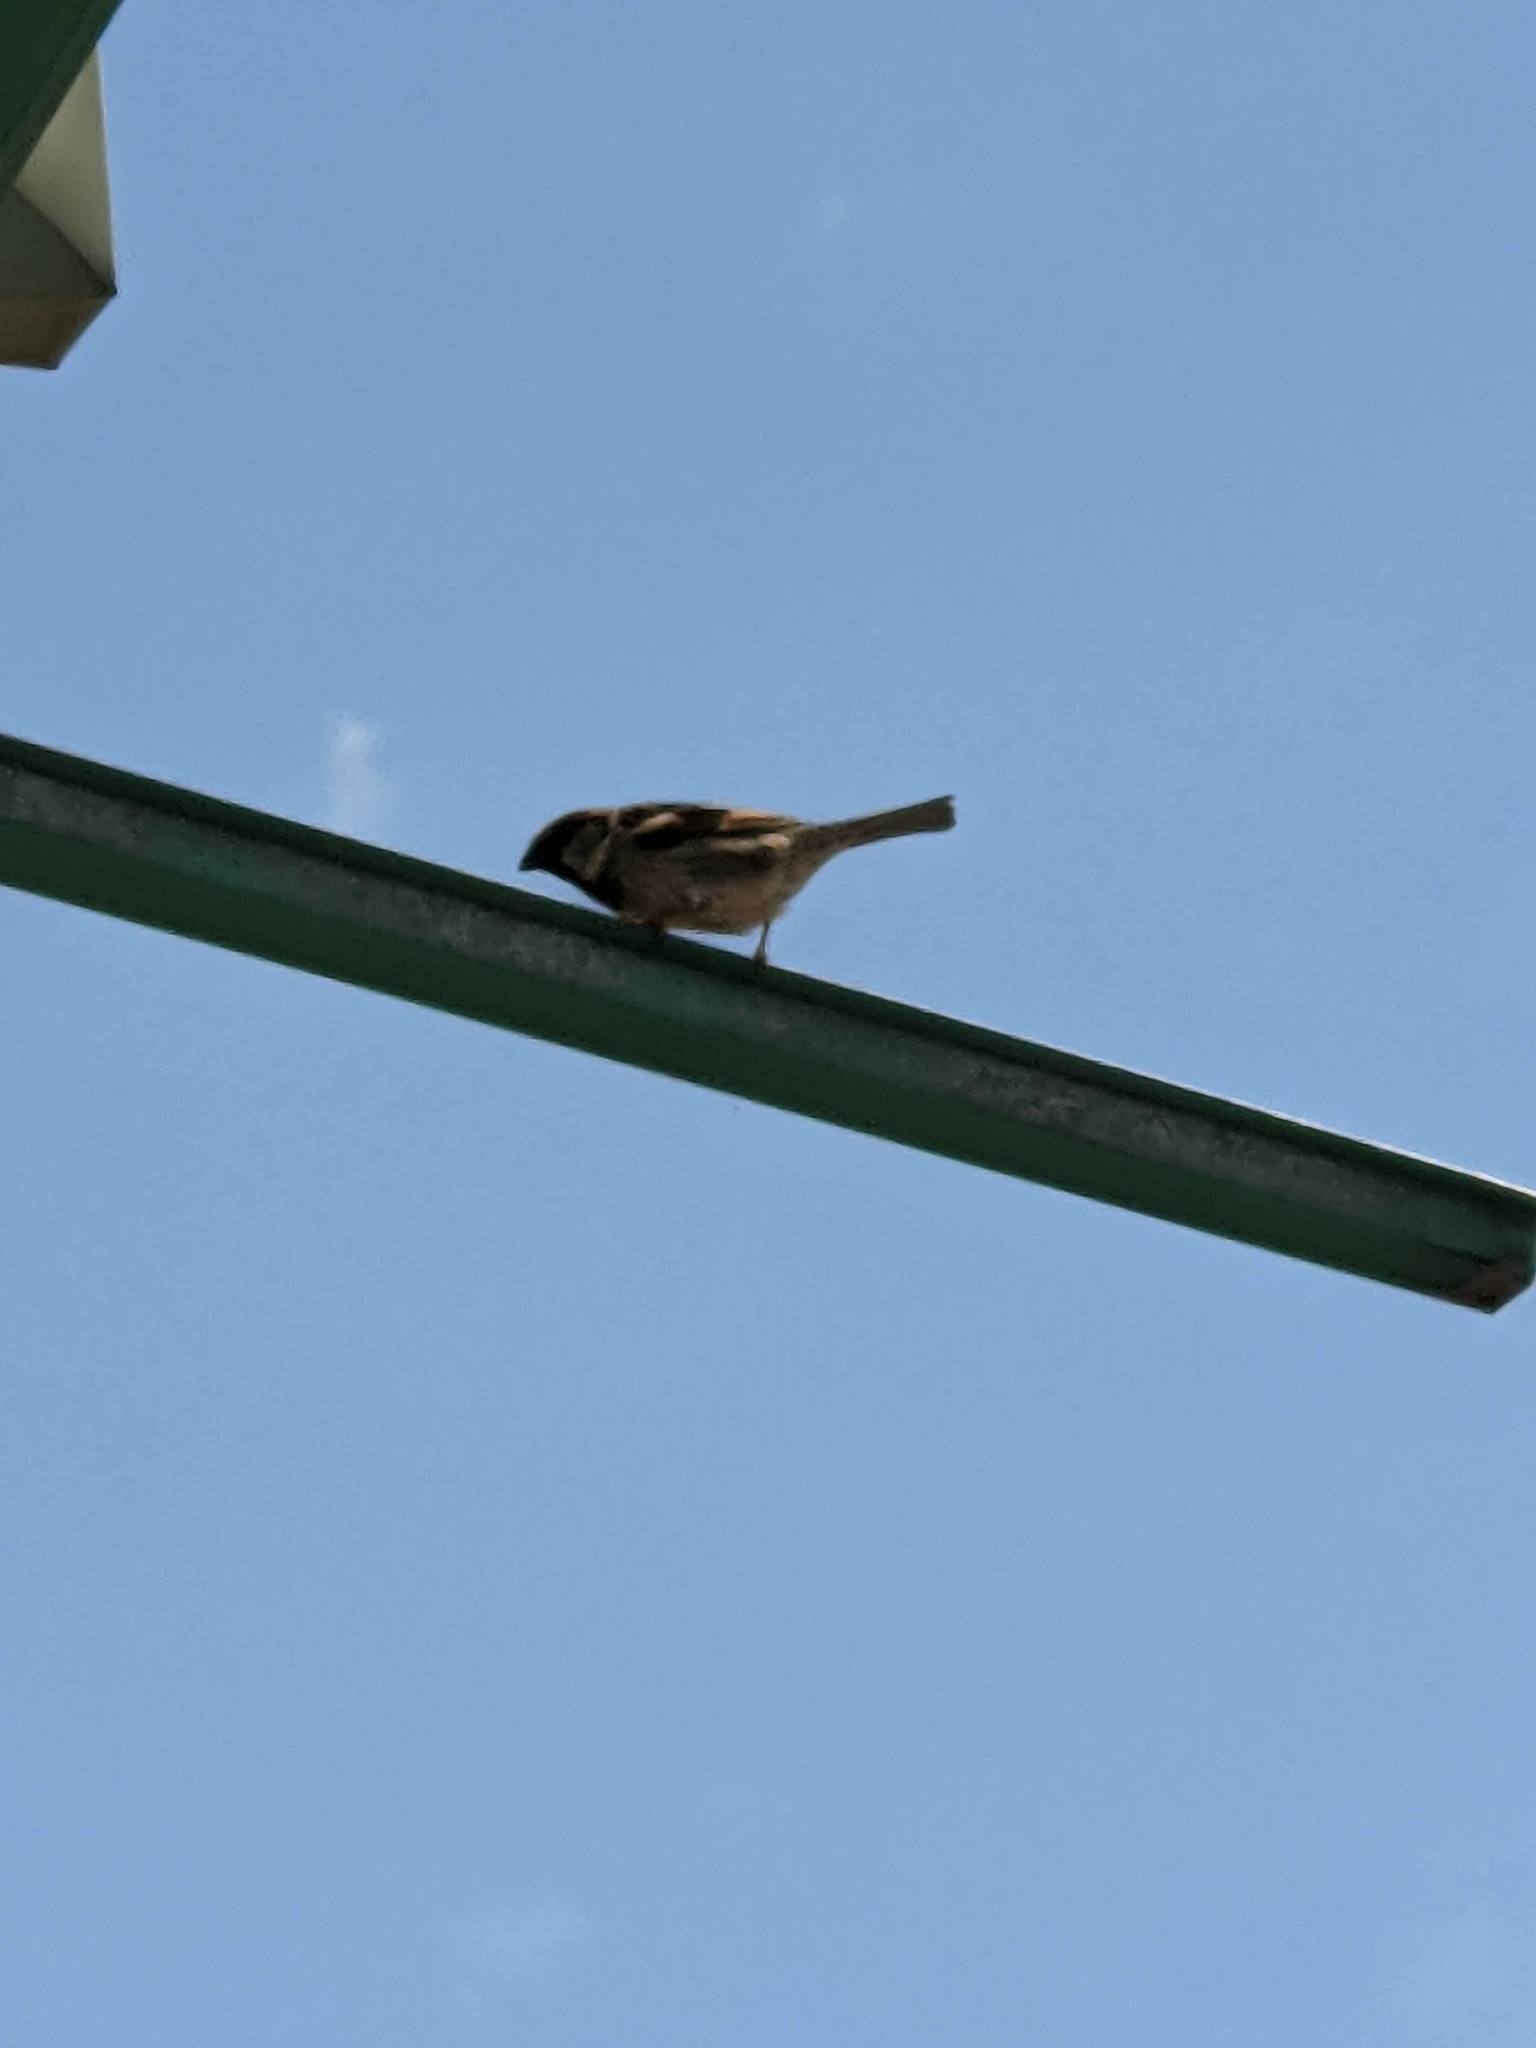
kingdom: Animalia
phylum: Chordata
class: Aves
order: Passeriformes
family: Passeridae
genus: Passer
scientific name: Passer domesticus
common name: House sparrow
